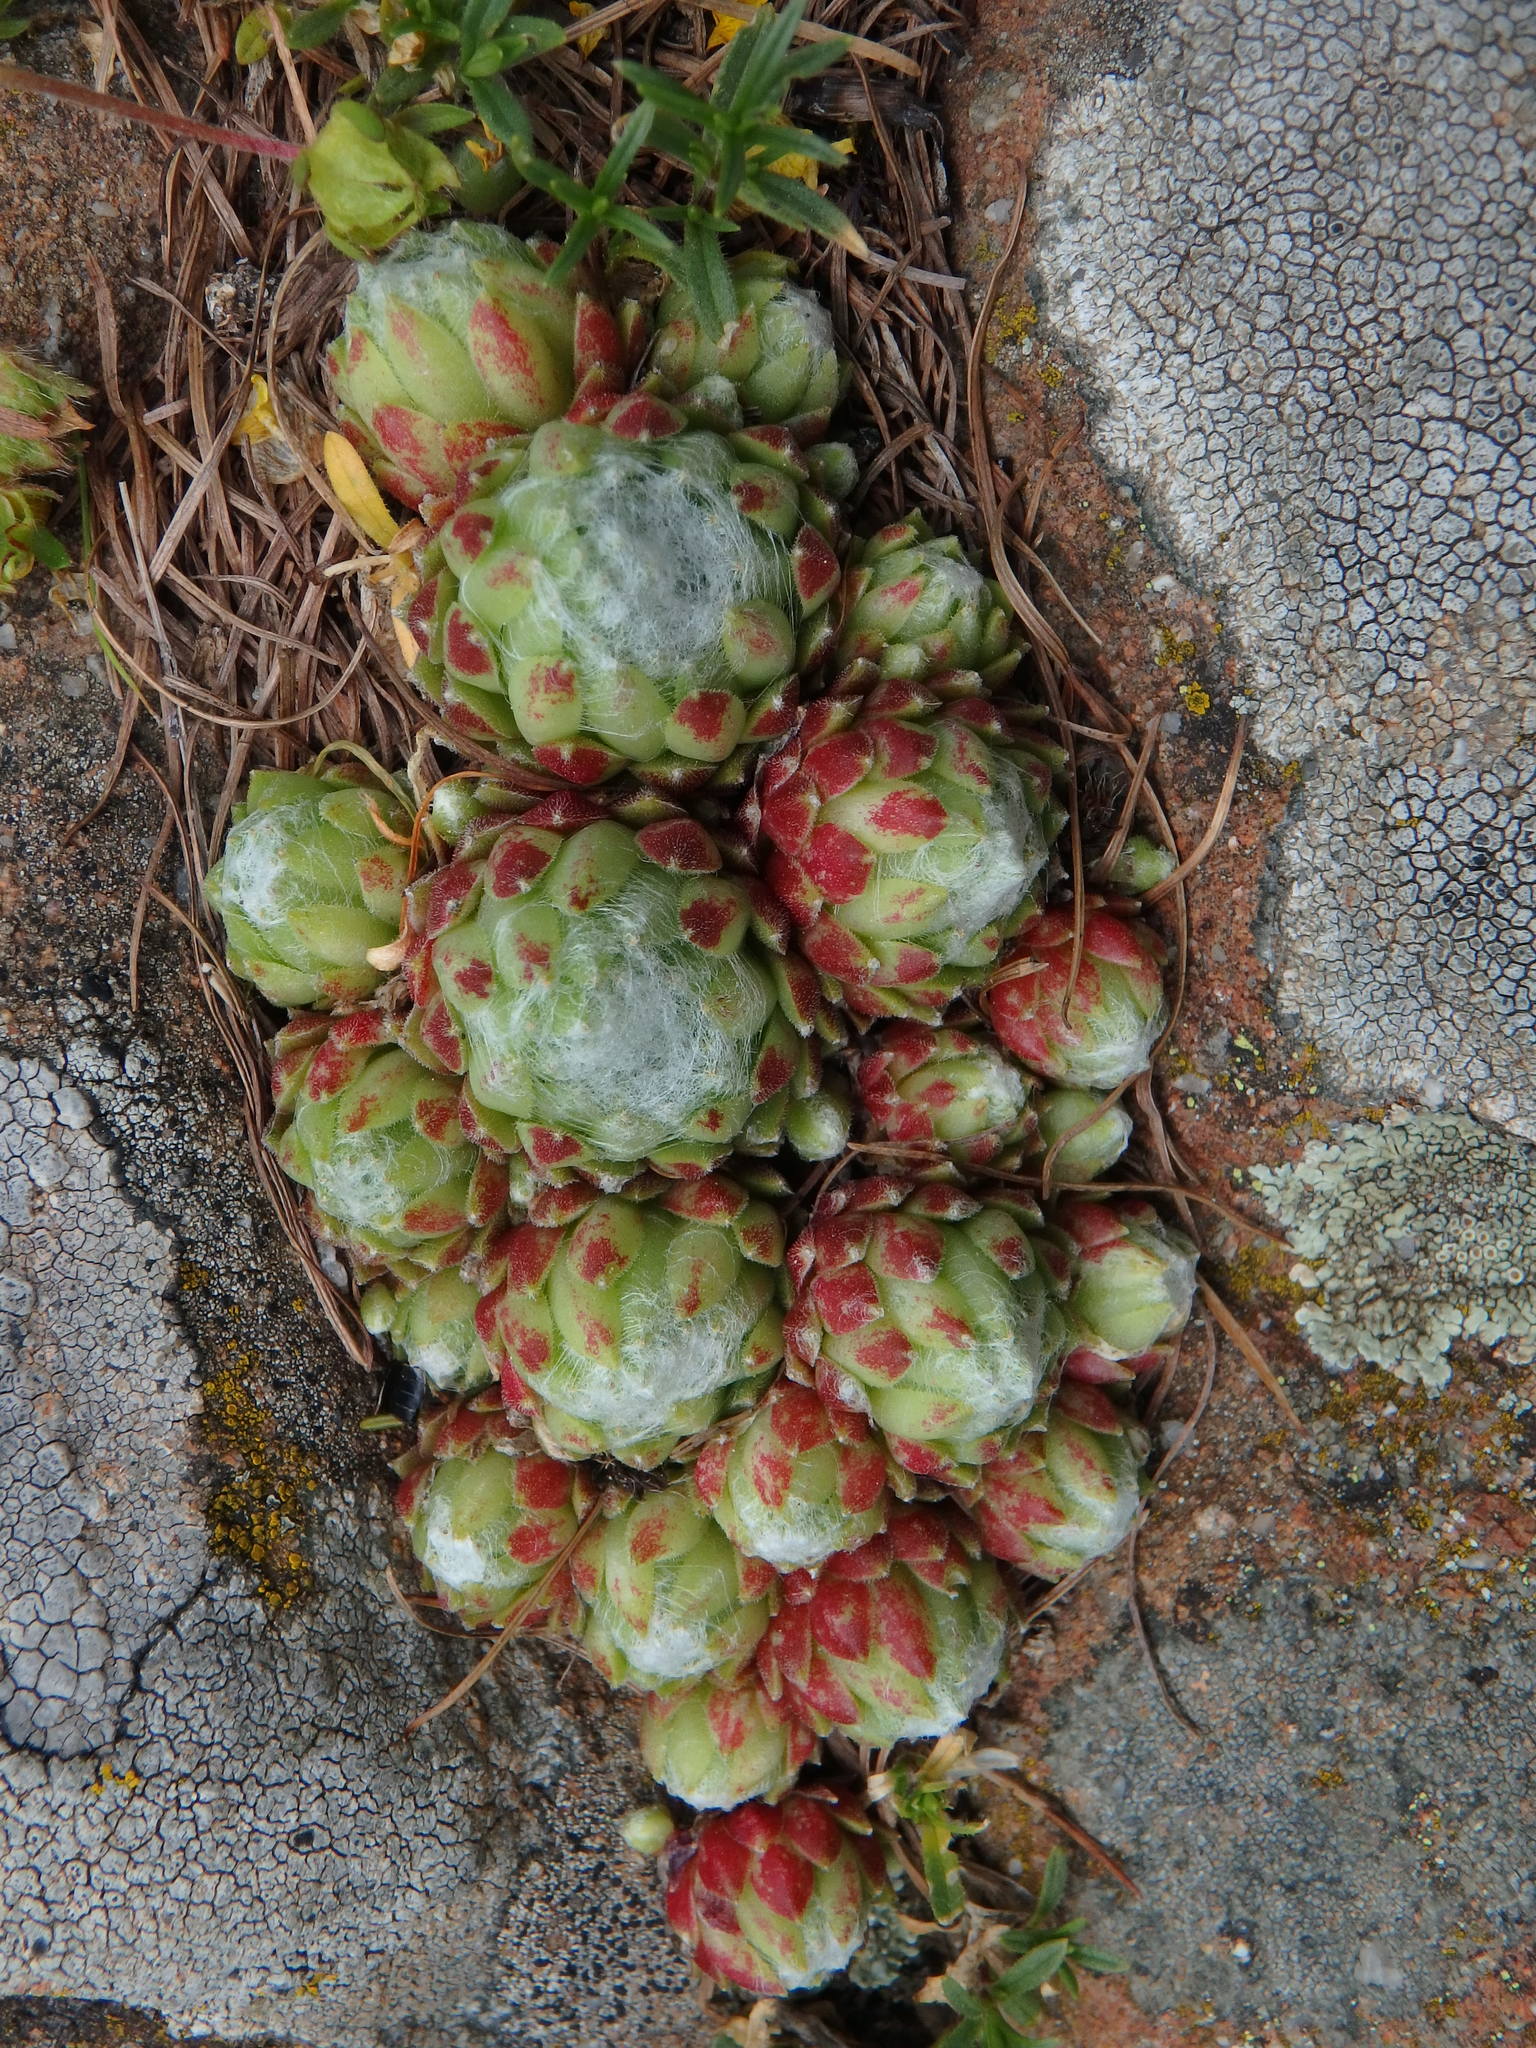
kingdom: Plantae
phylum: Tracheophyta
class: Magnoliopsida
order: Saxifragales
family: Crassulaceae
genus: Sempervivum
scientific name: Sempervivum arachnoideum
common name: Cobweb house-leek
